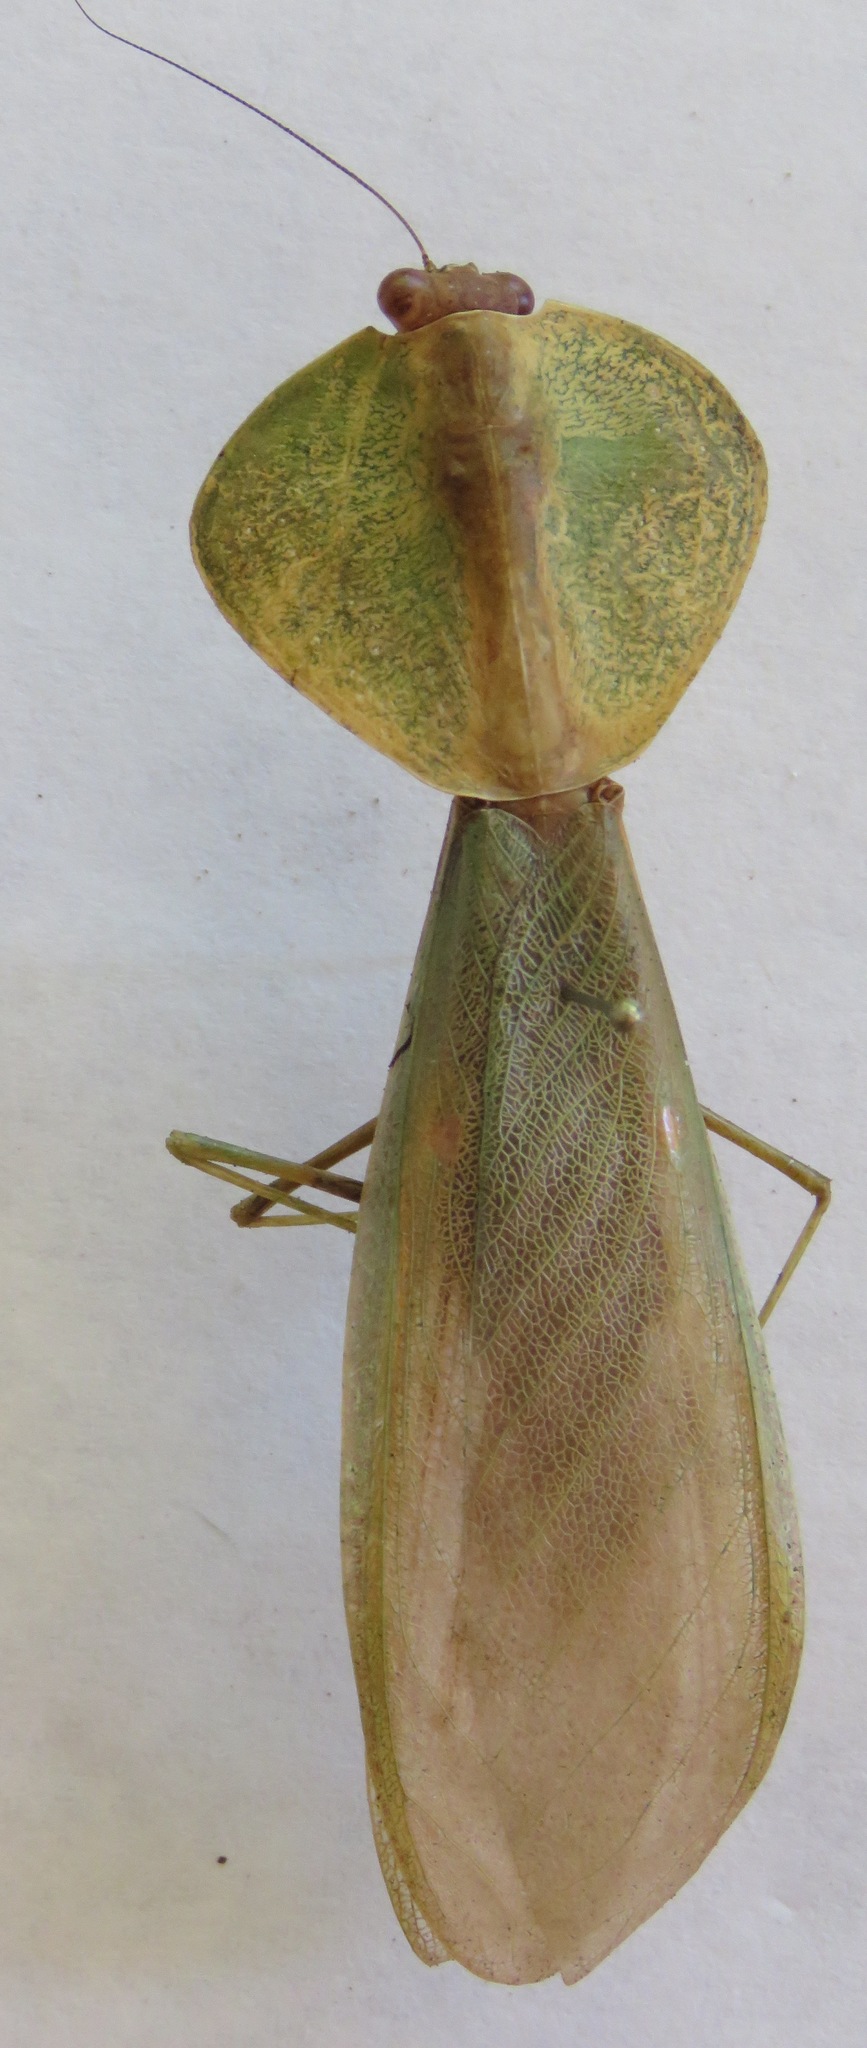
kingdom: Animalia
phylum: Arthropoda
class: Insecta
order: Mantodea
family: Mantidae
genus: Choeradodis
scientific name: Choeradodis rhombicollis
